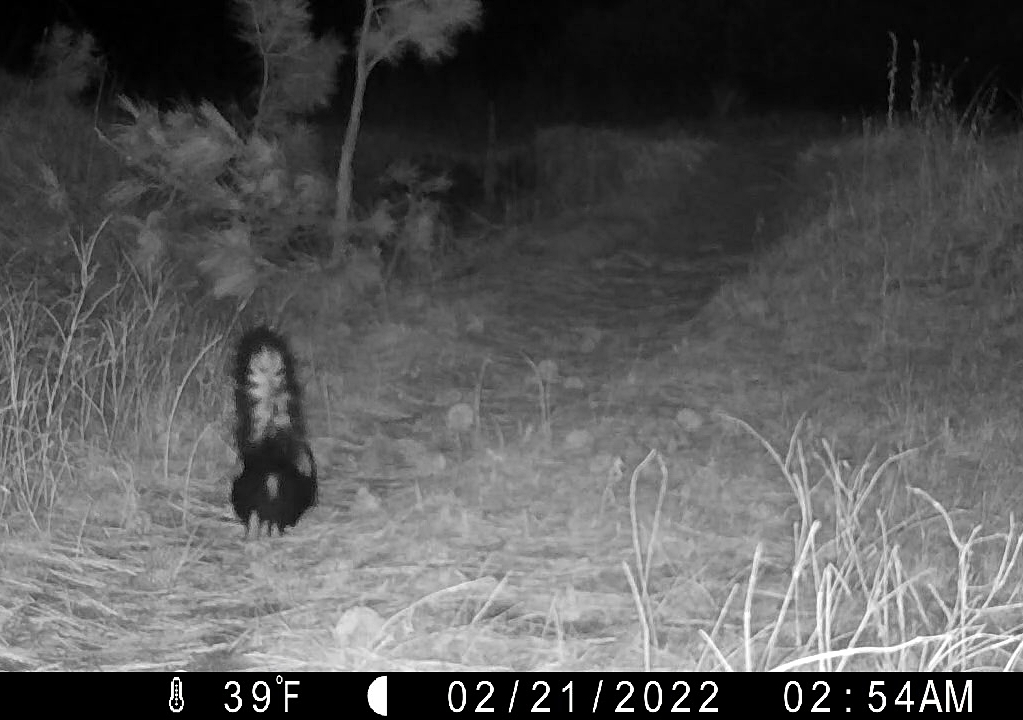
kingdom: Animalia
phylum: Chordata
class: Mammalia
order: Carnivora
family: Mephitidae
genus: Mephitis
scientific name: Mephitis mephitis
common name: Striped skunk
